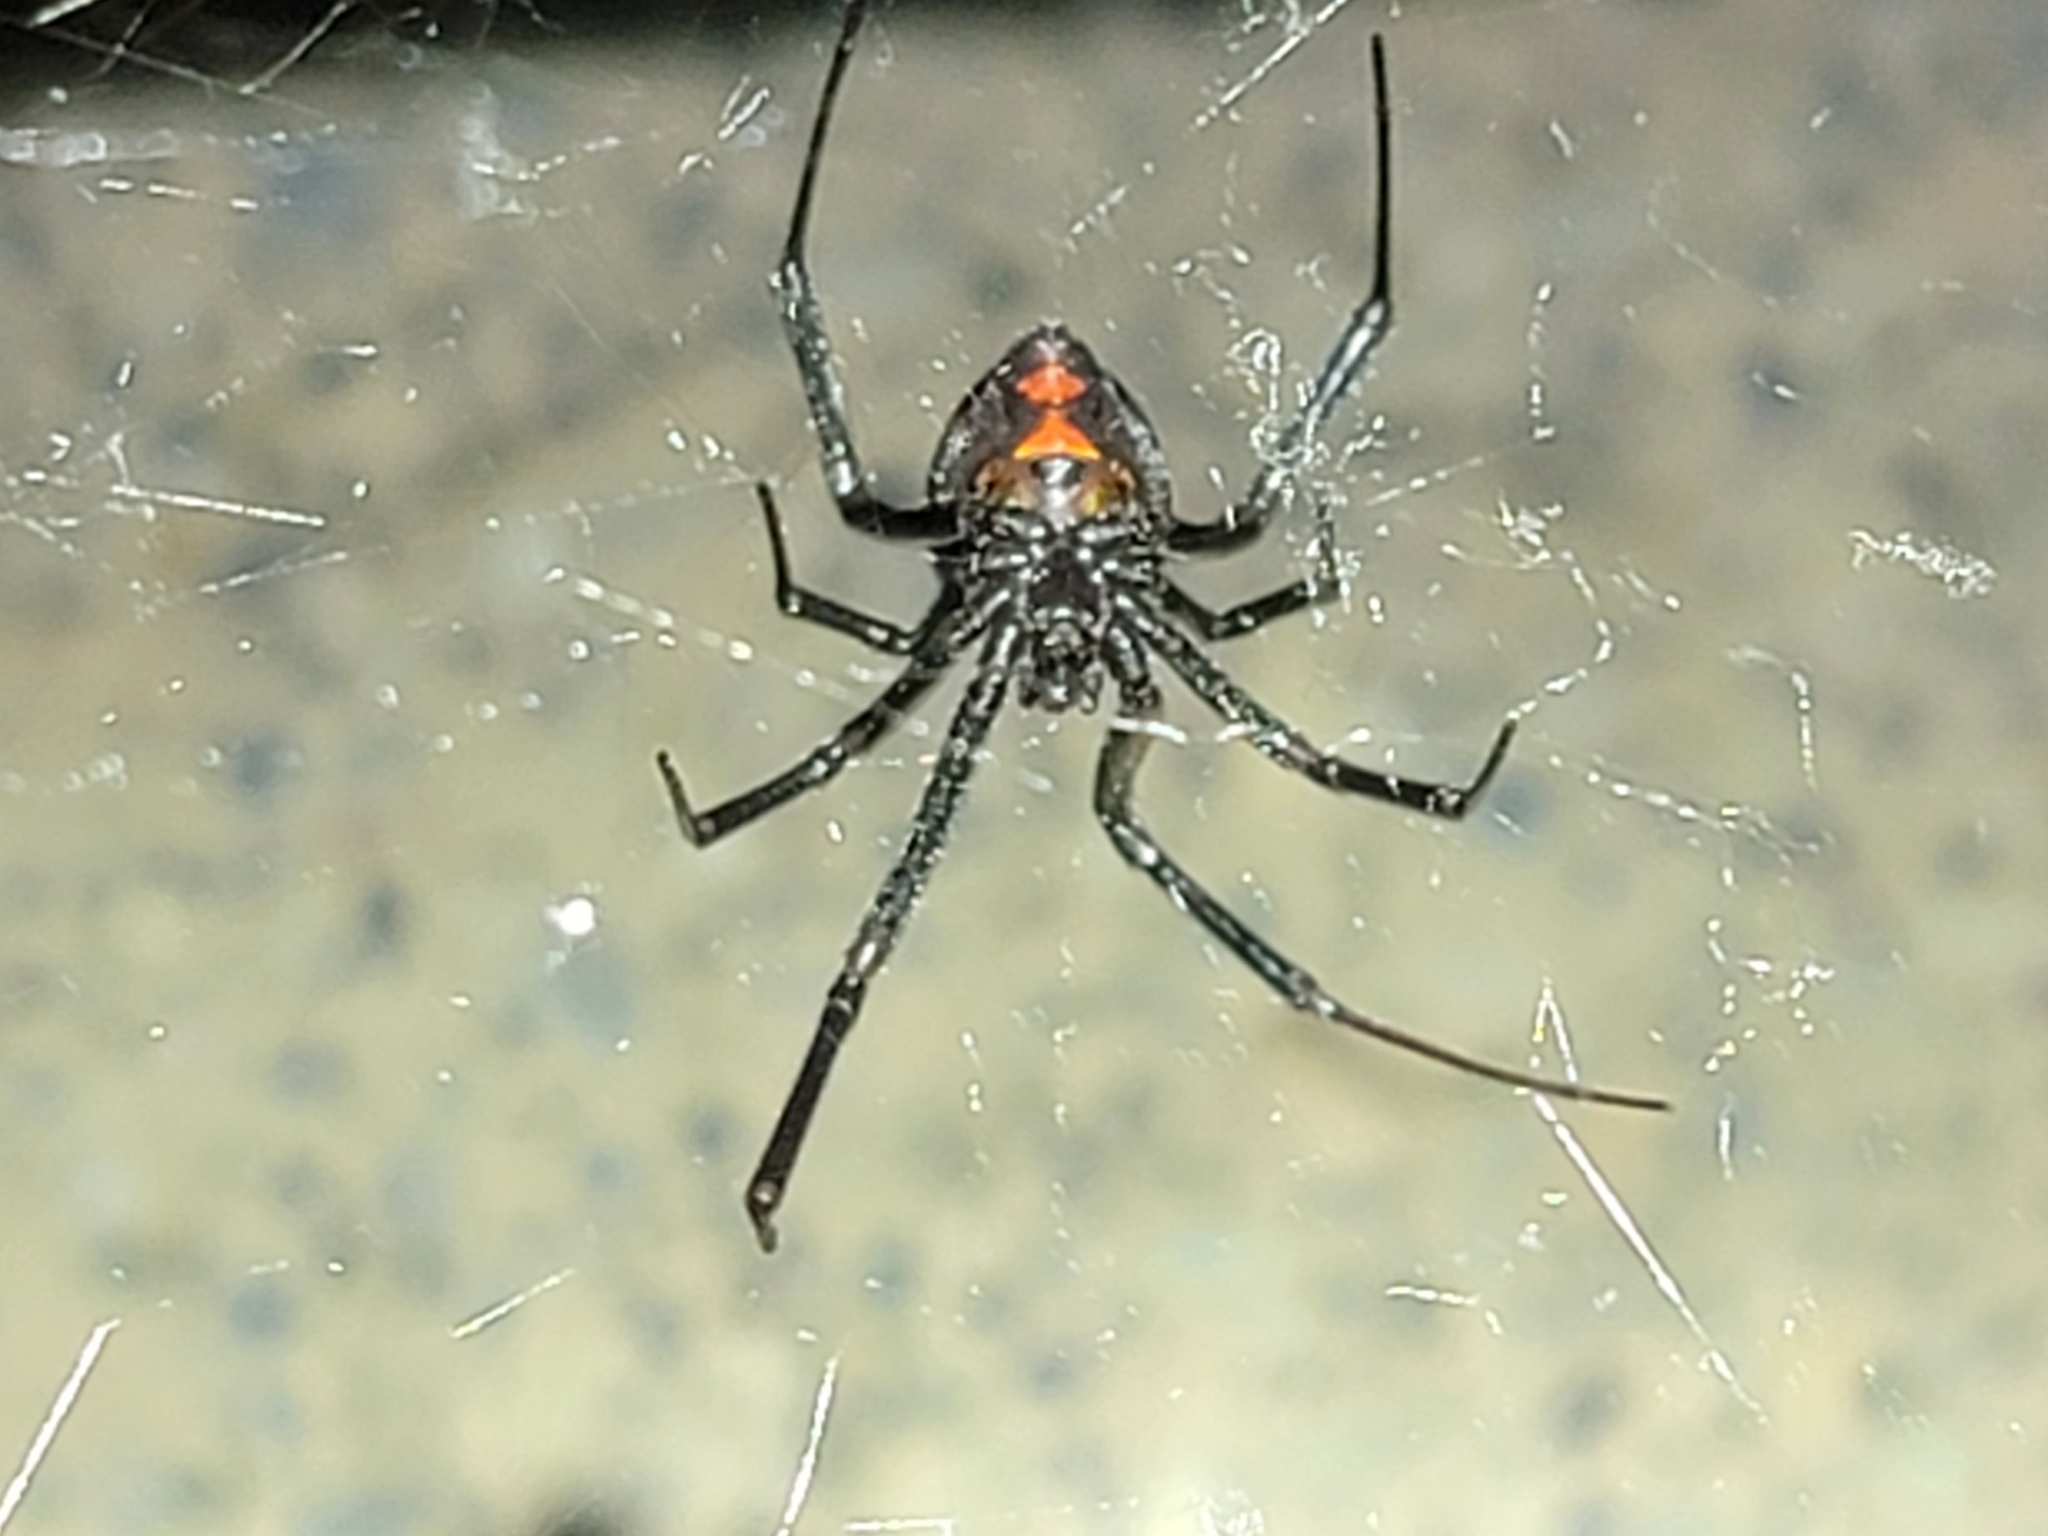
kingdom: Animalia
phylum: Arthropoda
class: Arachnida
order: Araneae
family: Theridiidae
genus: Latrodectus
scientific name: Latrodectus hesperus
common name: Western black widow
